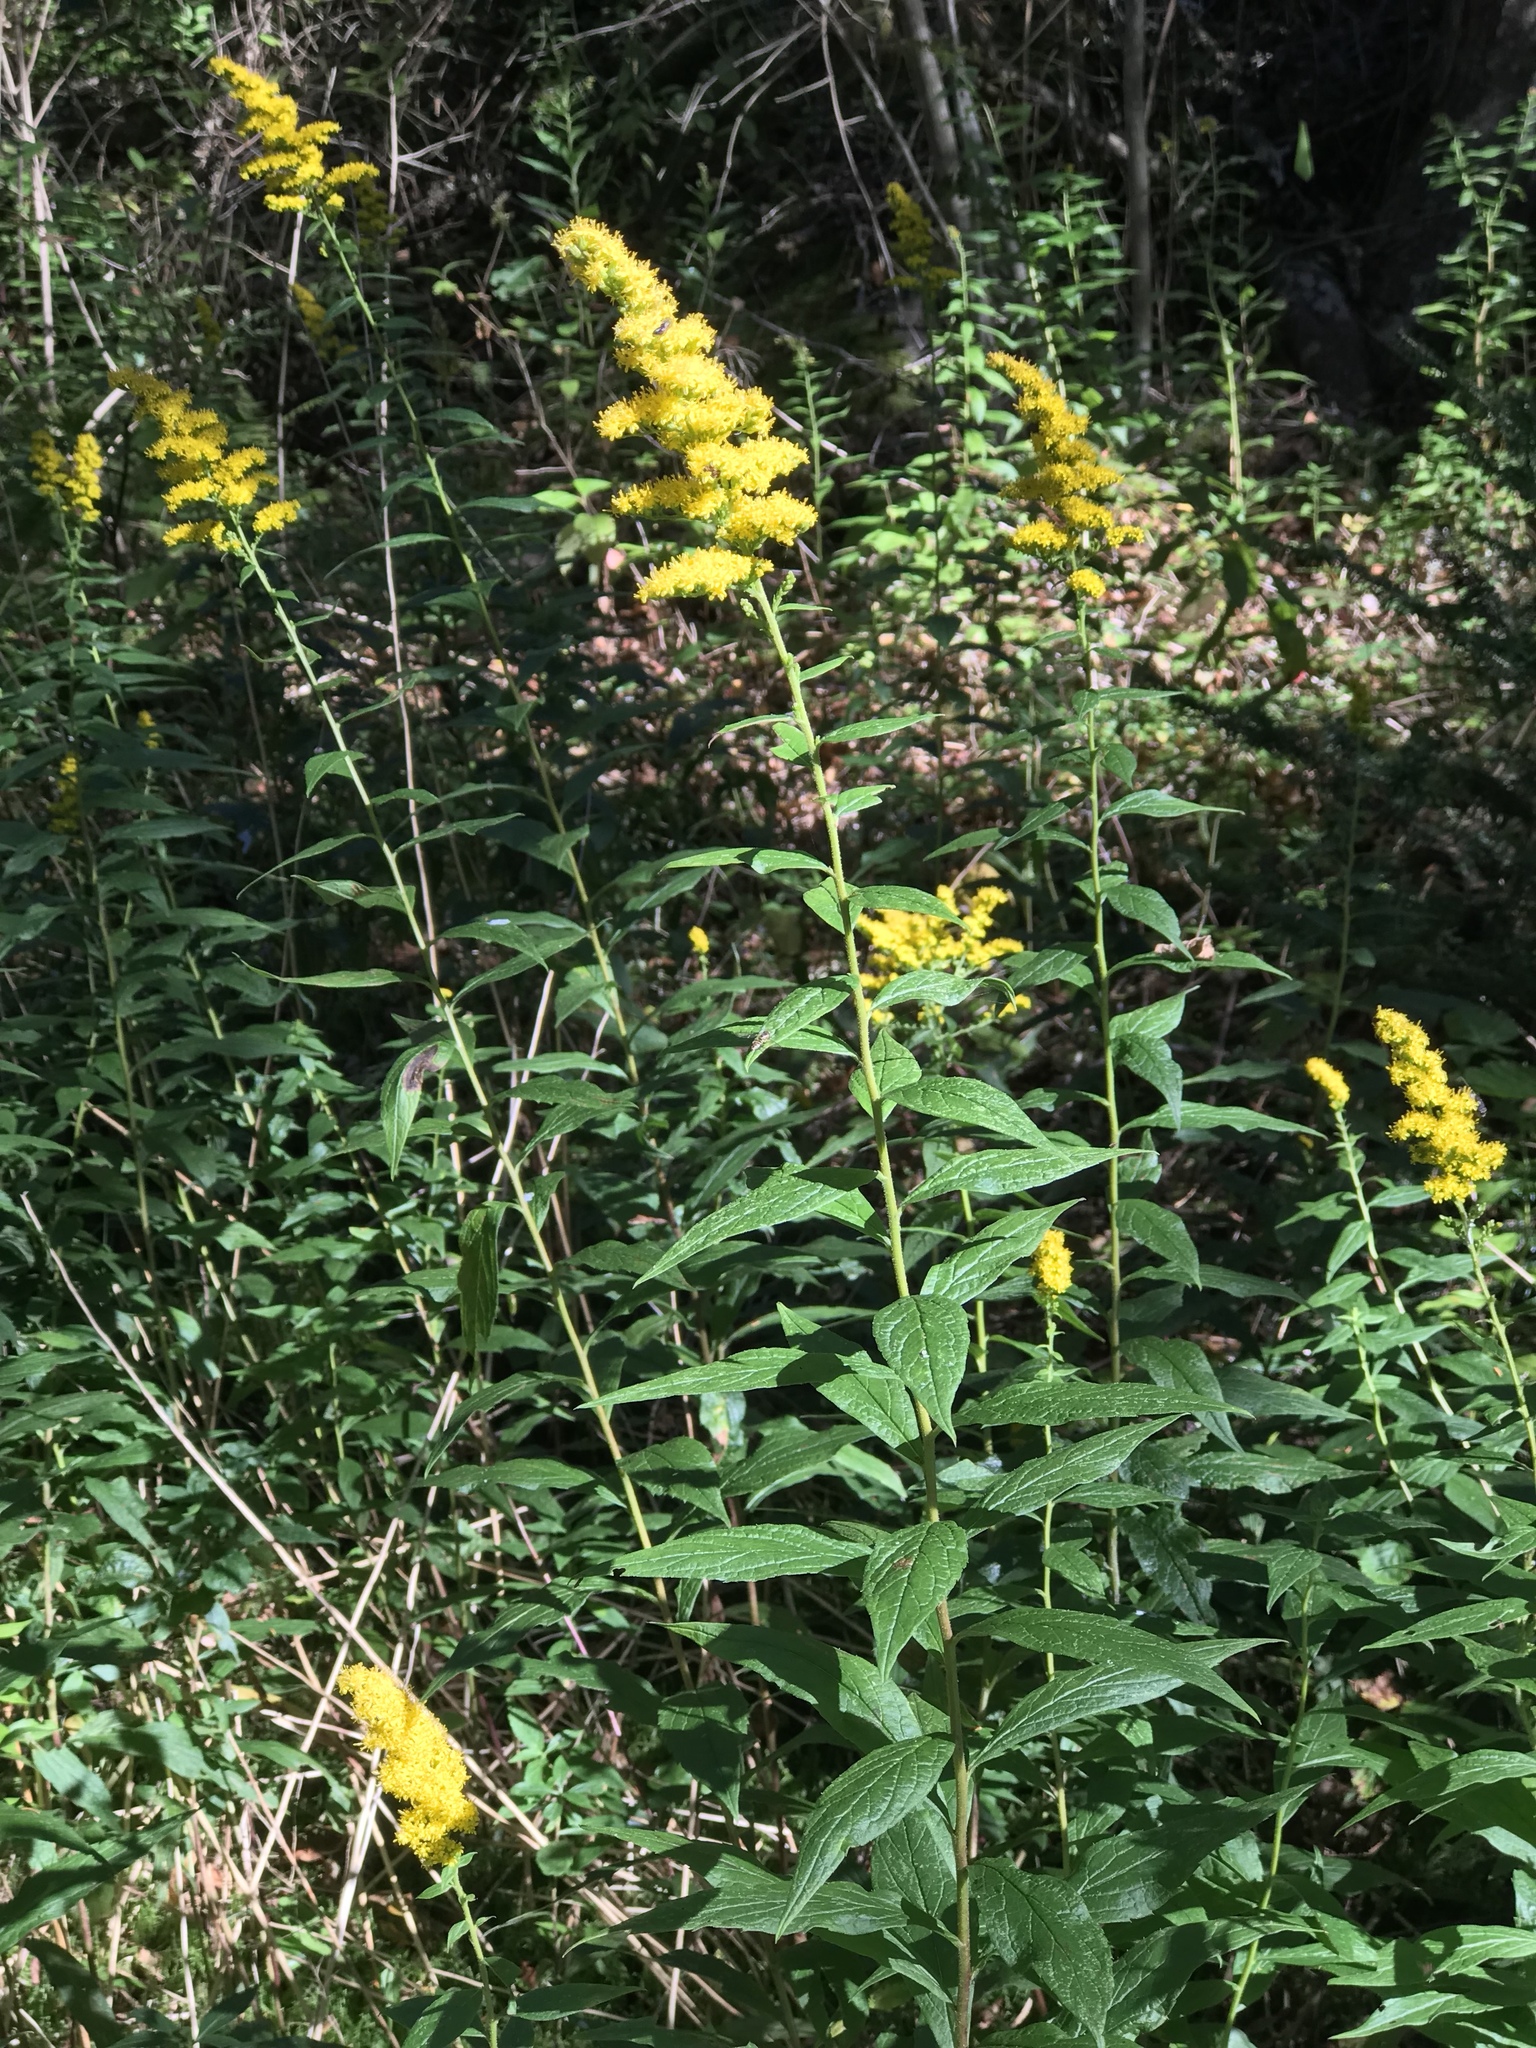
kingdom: Plantae
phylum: Tracheophyta
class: Magnoliopsida
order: Asterales
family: Asteraceae
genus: Solidago
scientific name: Solidago rugosa
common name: Rough-stemmed goldenrod
